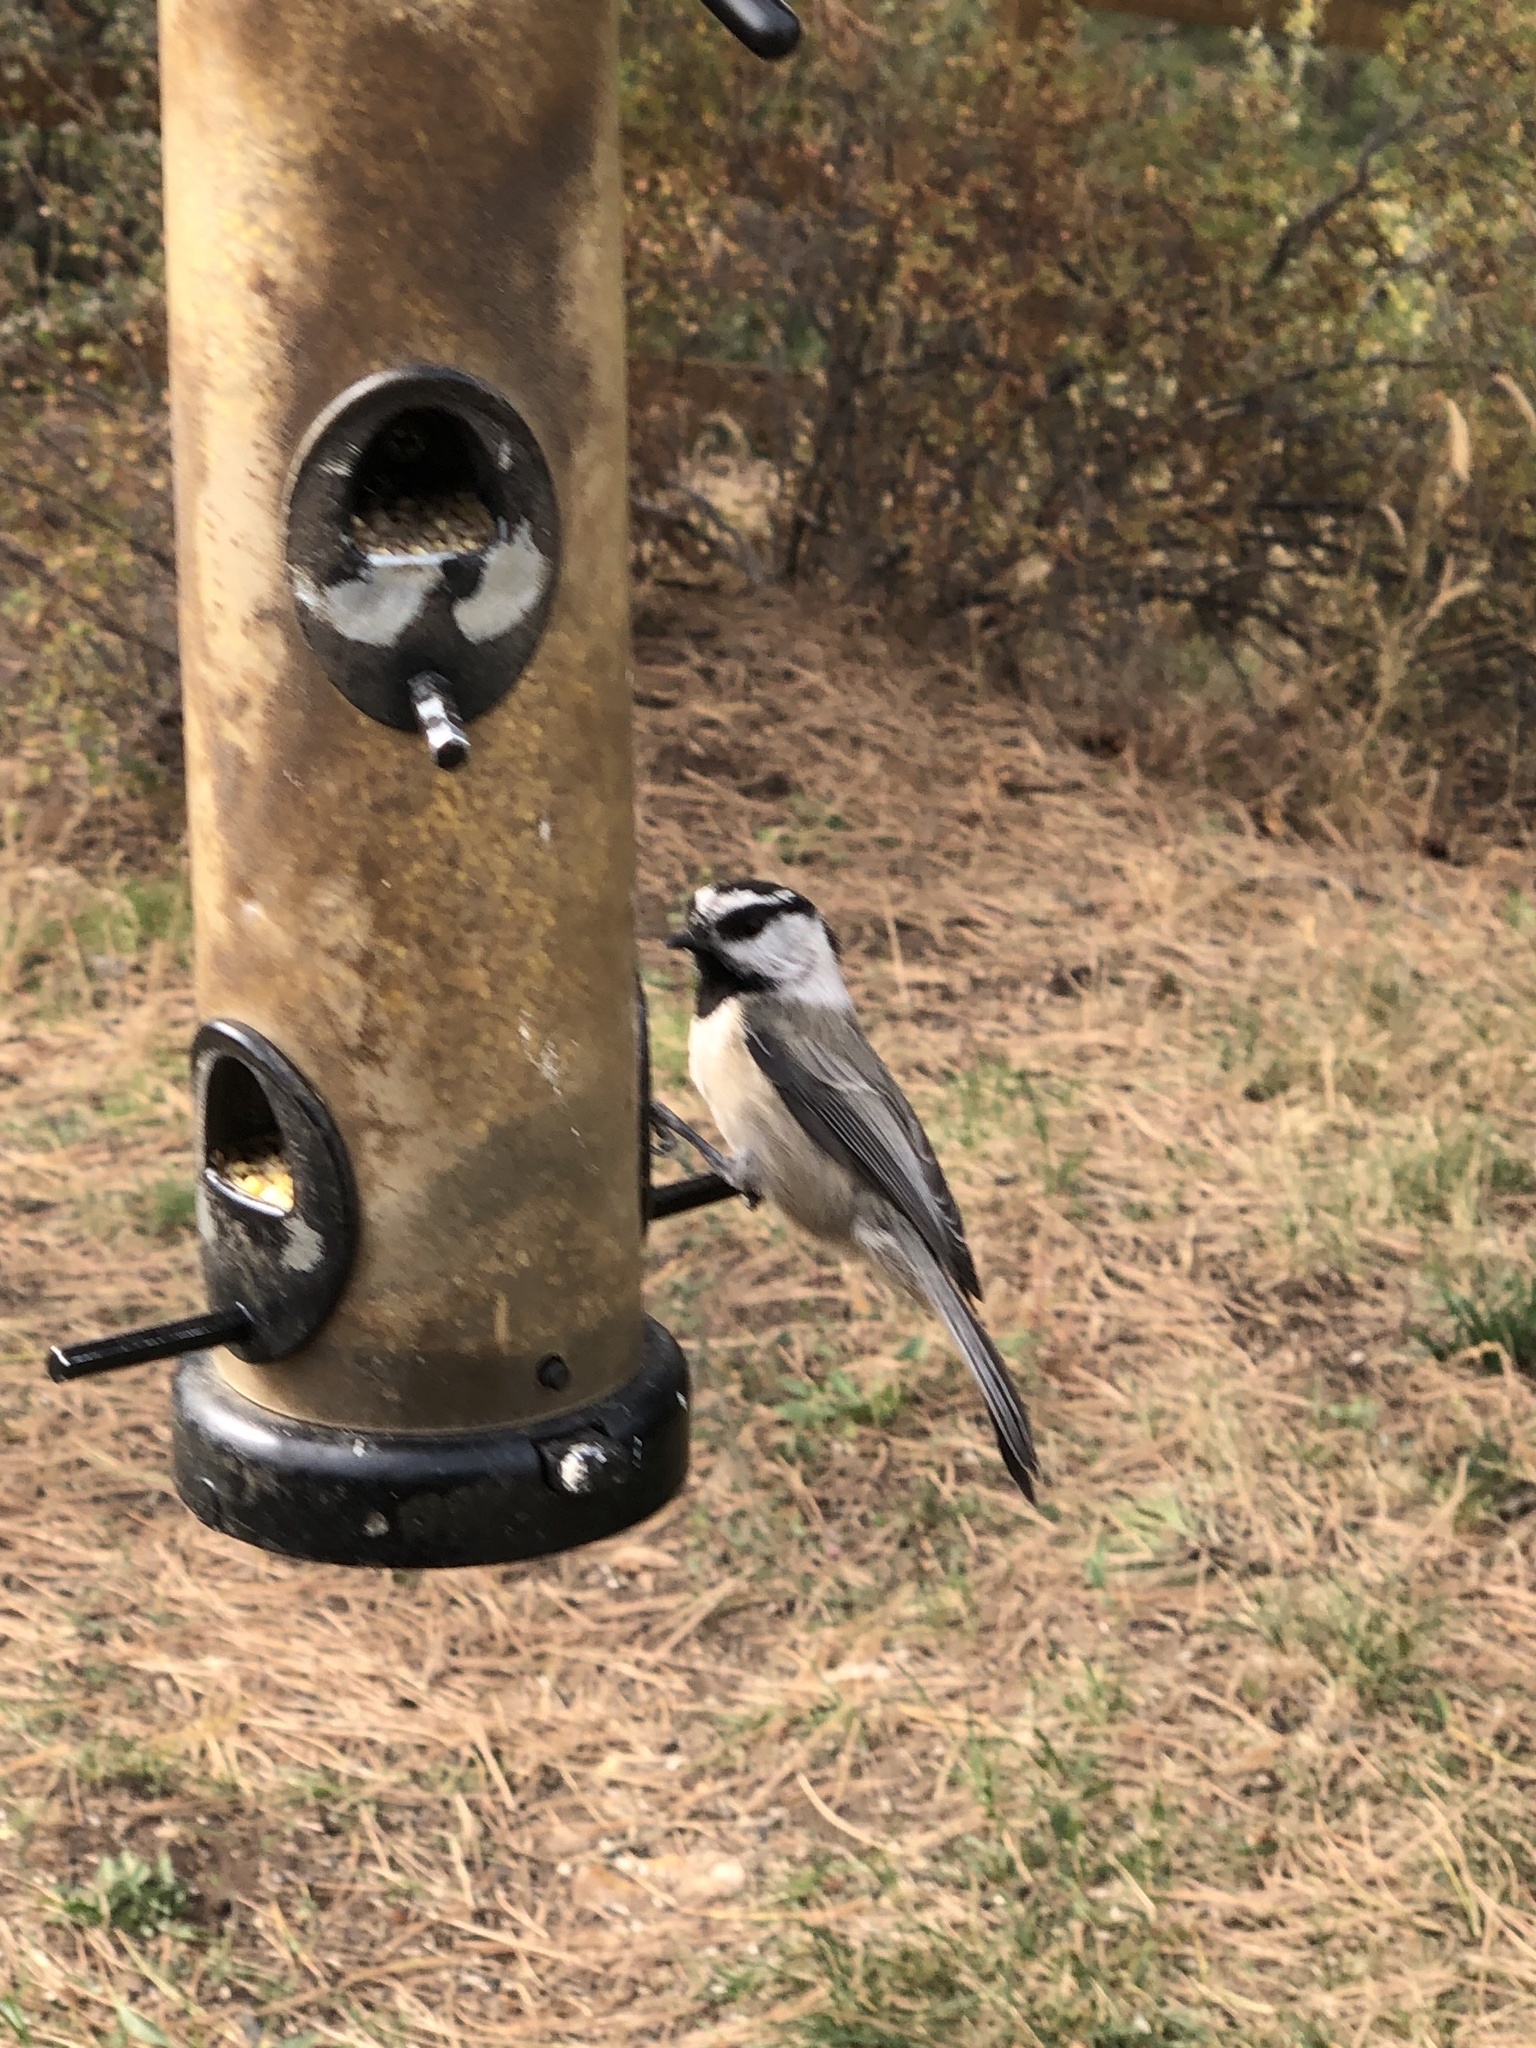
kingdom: Animalia
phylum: Chordata
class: Aves
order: Passeriformes
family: Paridae
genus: Poecile
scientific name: Poecile gambeli
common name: Mountain chickadee
